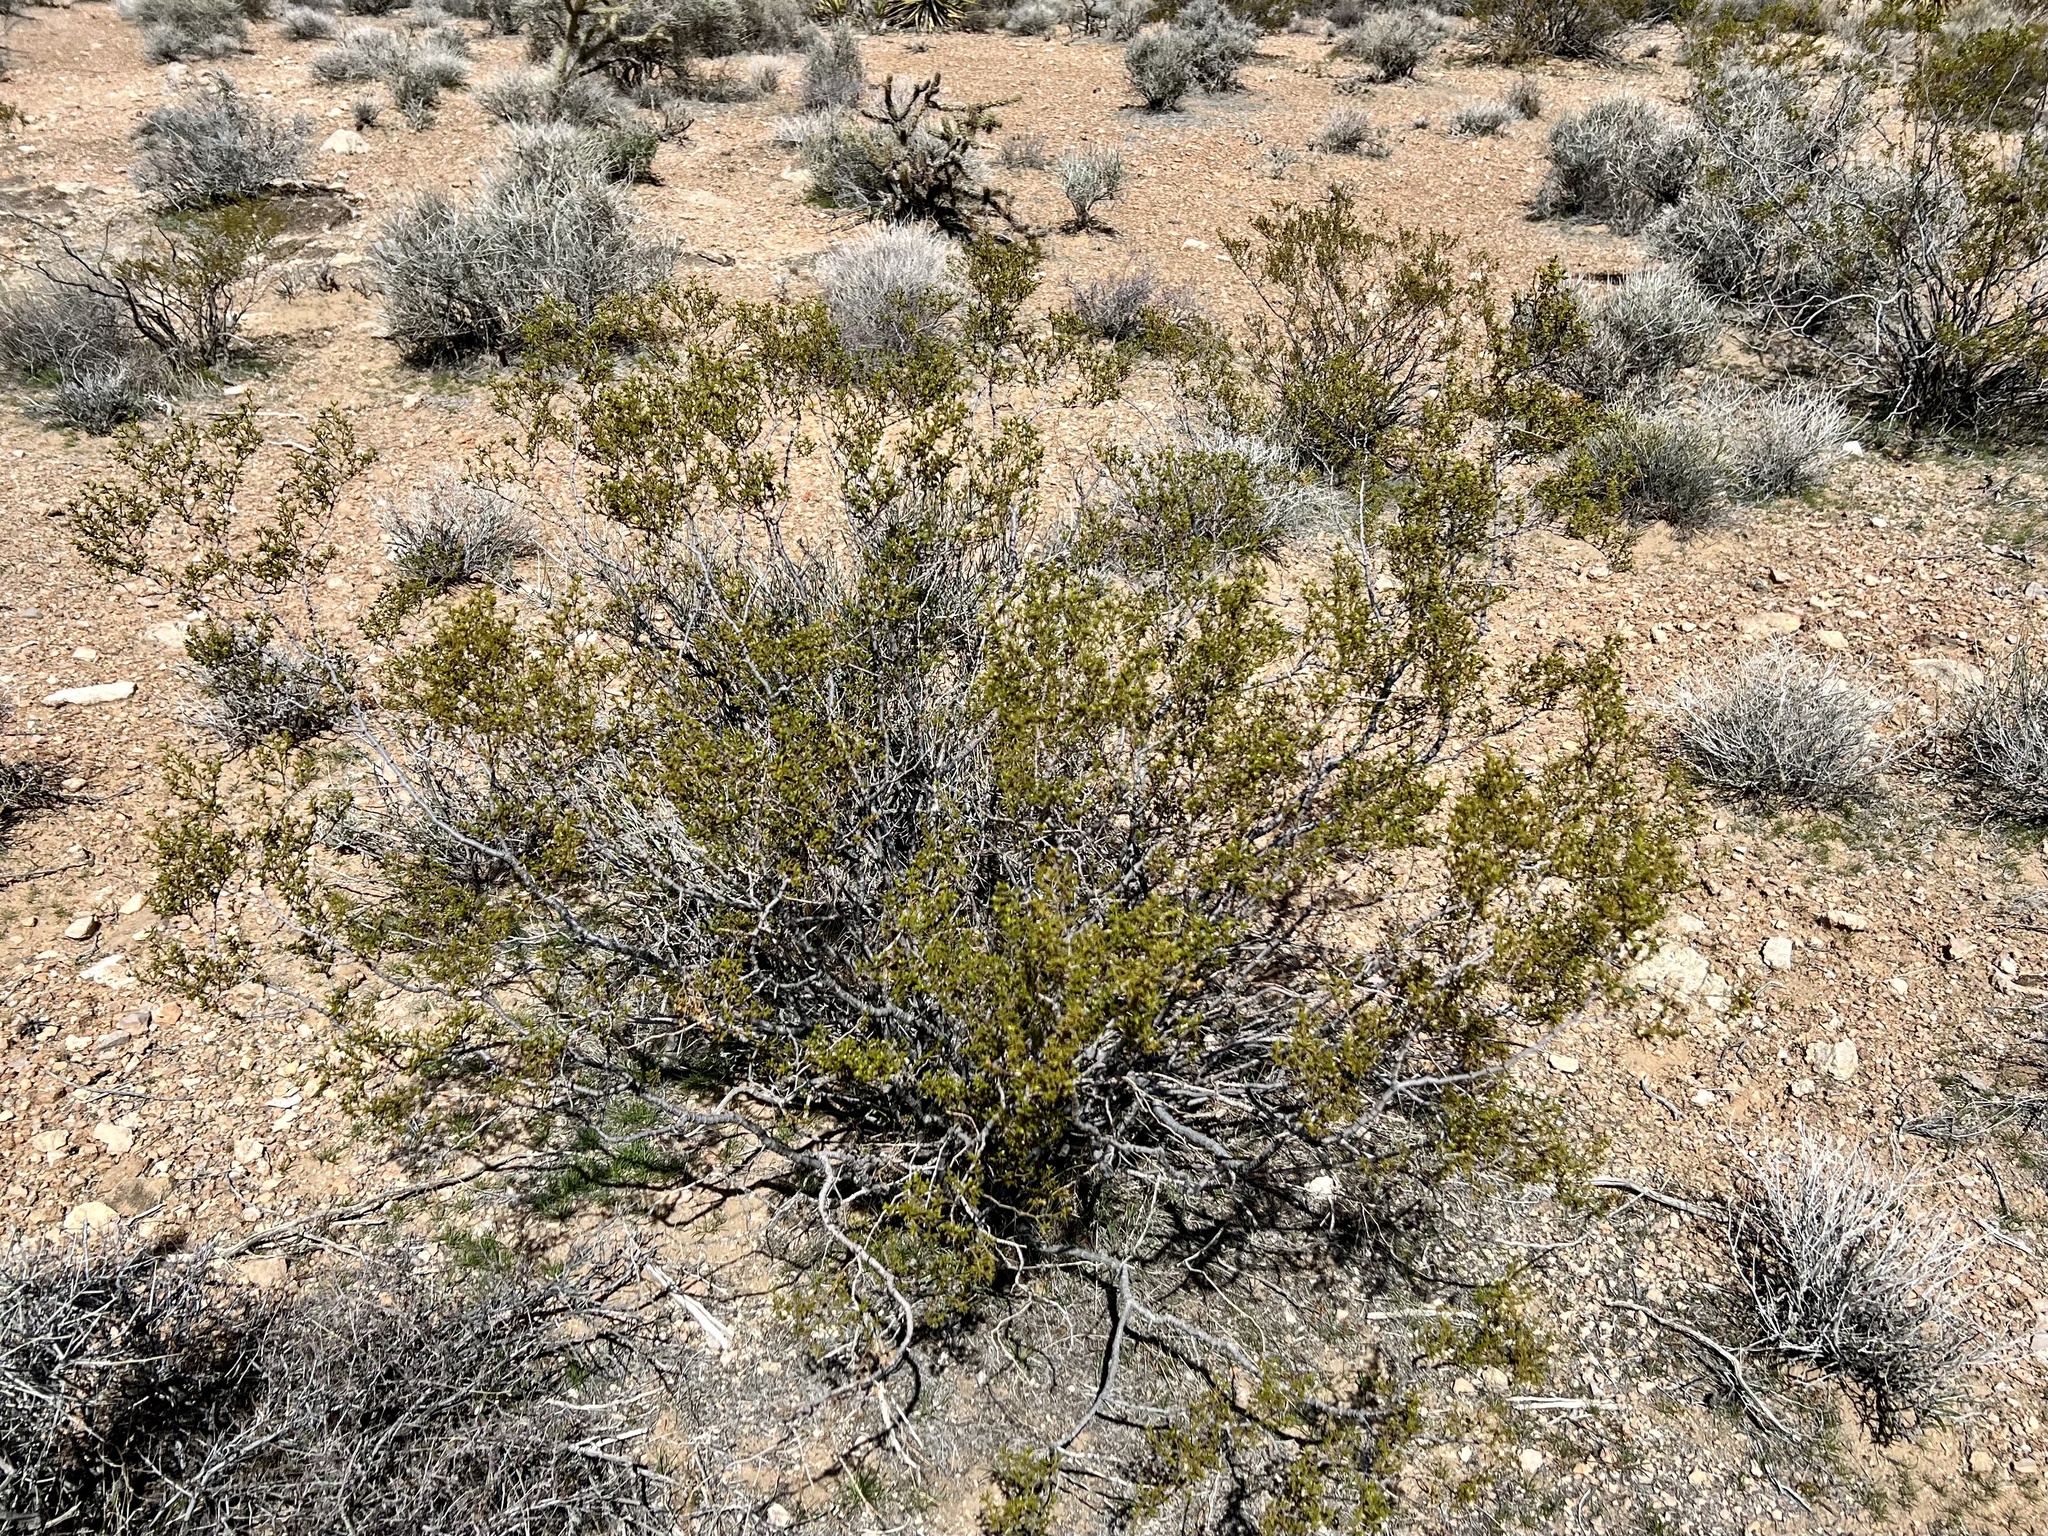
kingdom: Plantae
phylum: Tracheophyta
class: Magnoliopsida
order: Zygophyllales
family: Zygophyllaceae
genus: Larrea
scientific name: Larrea tridentata
